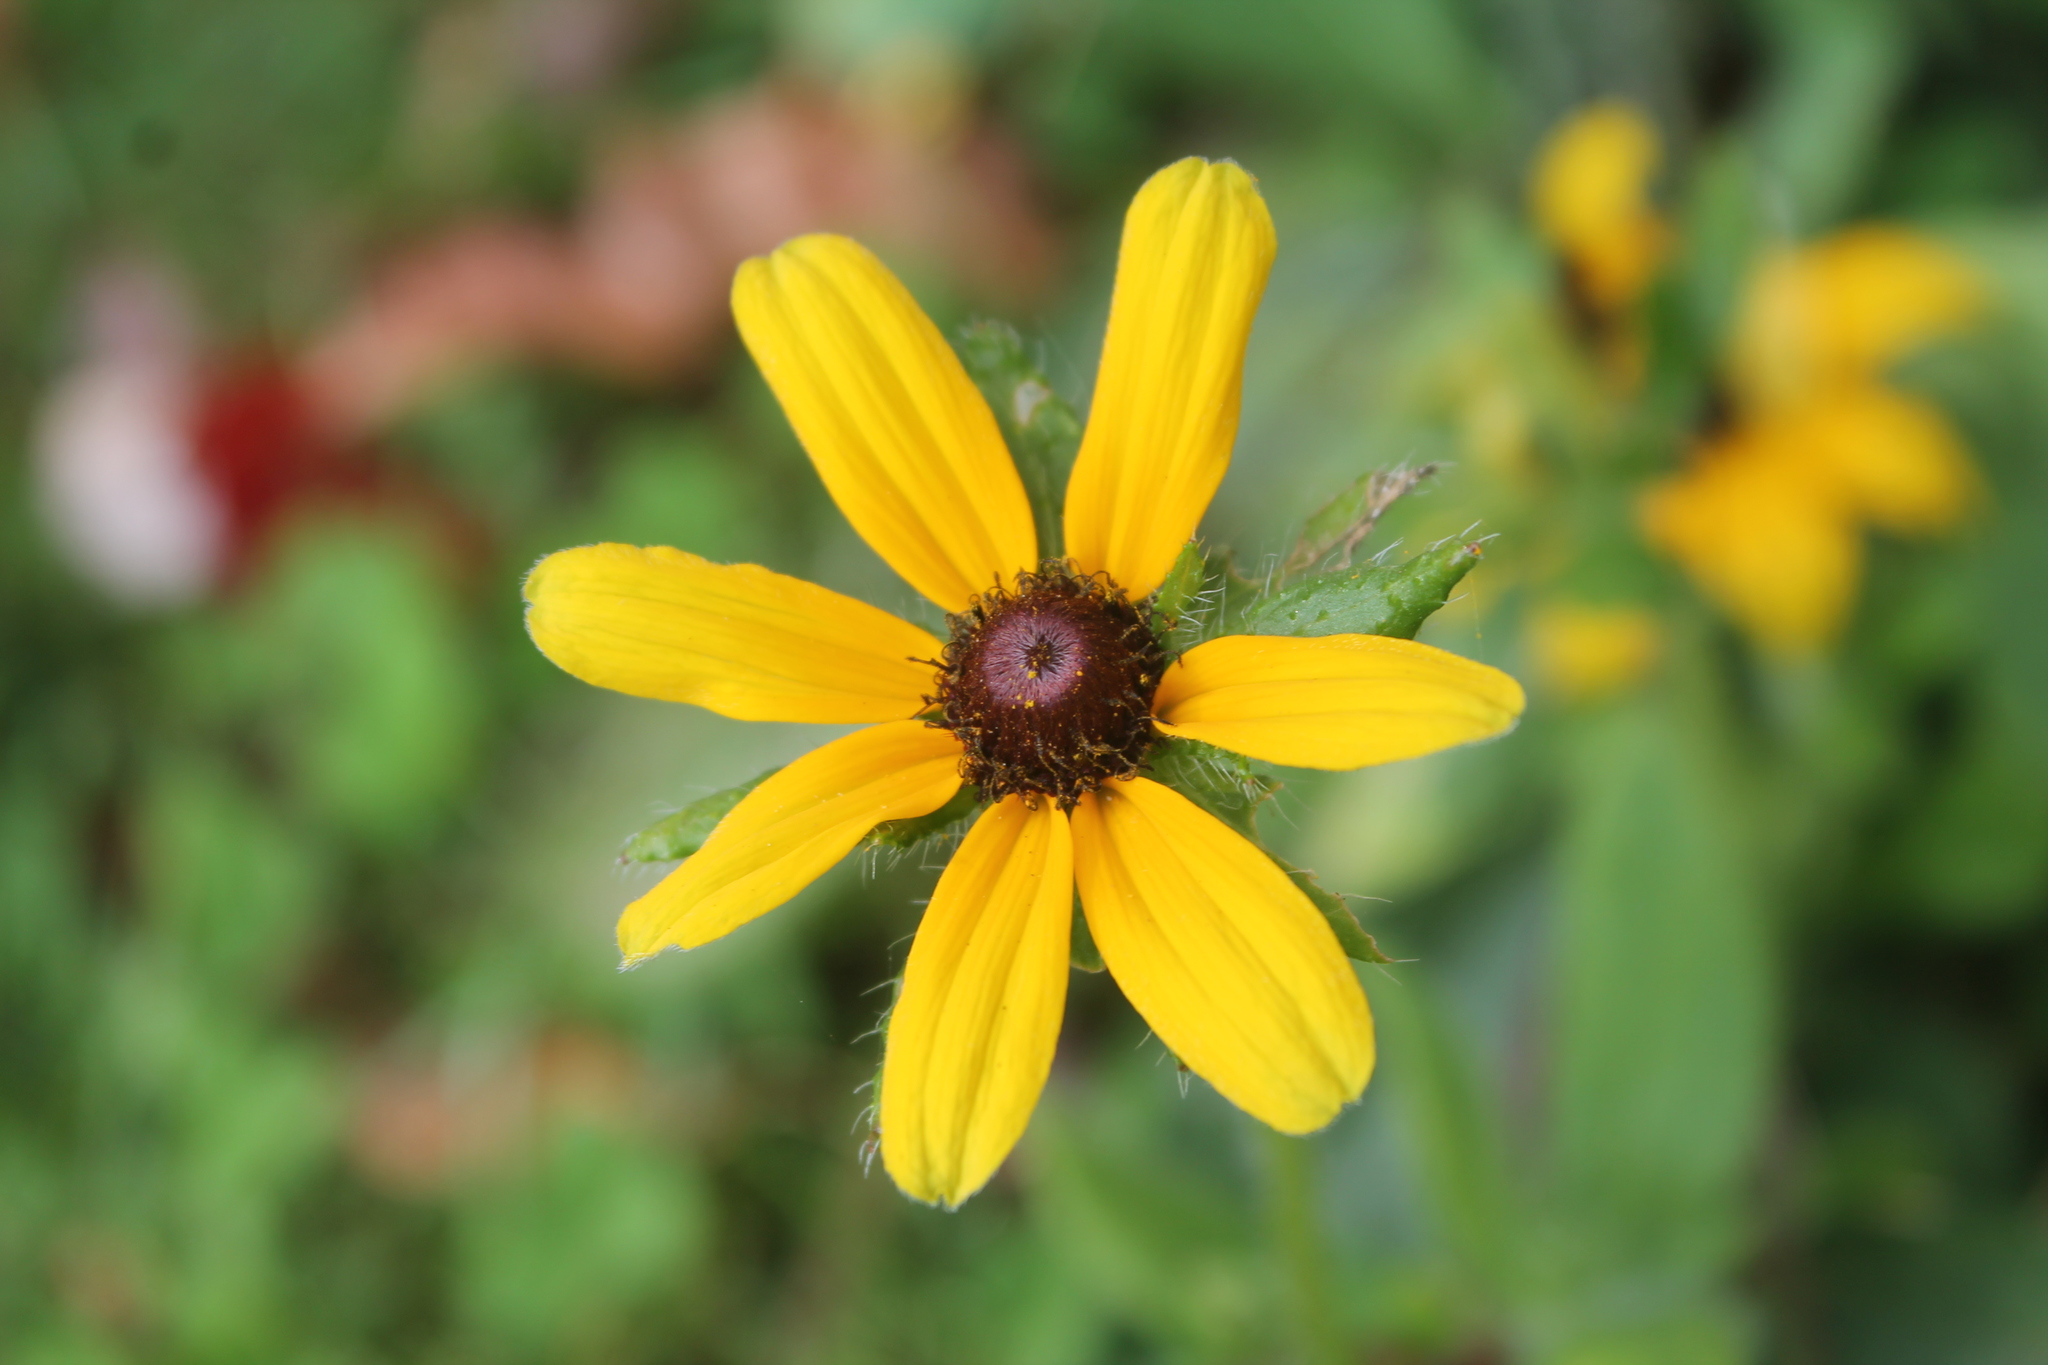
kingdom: Plantae
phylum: Tracheophyta
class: Magnoliopsida
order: Asterales
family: Asteraceae
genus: Rudbeckia
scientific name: Rudbeckia hirta
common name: Black-eyed-susan
